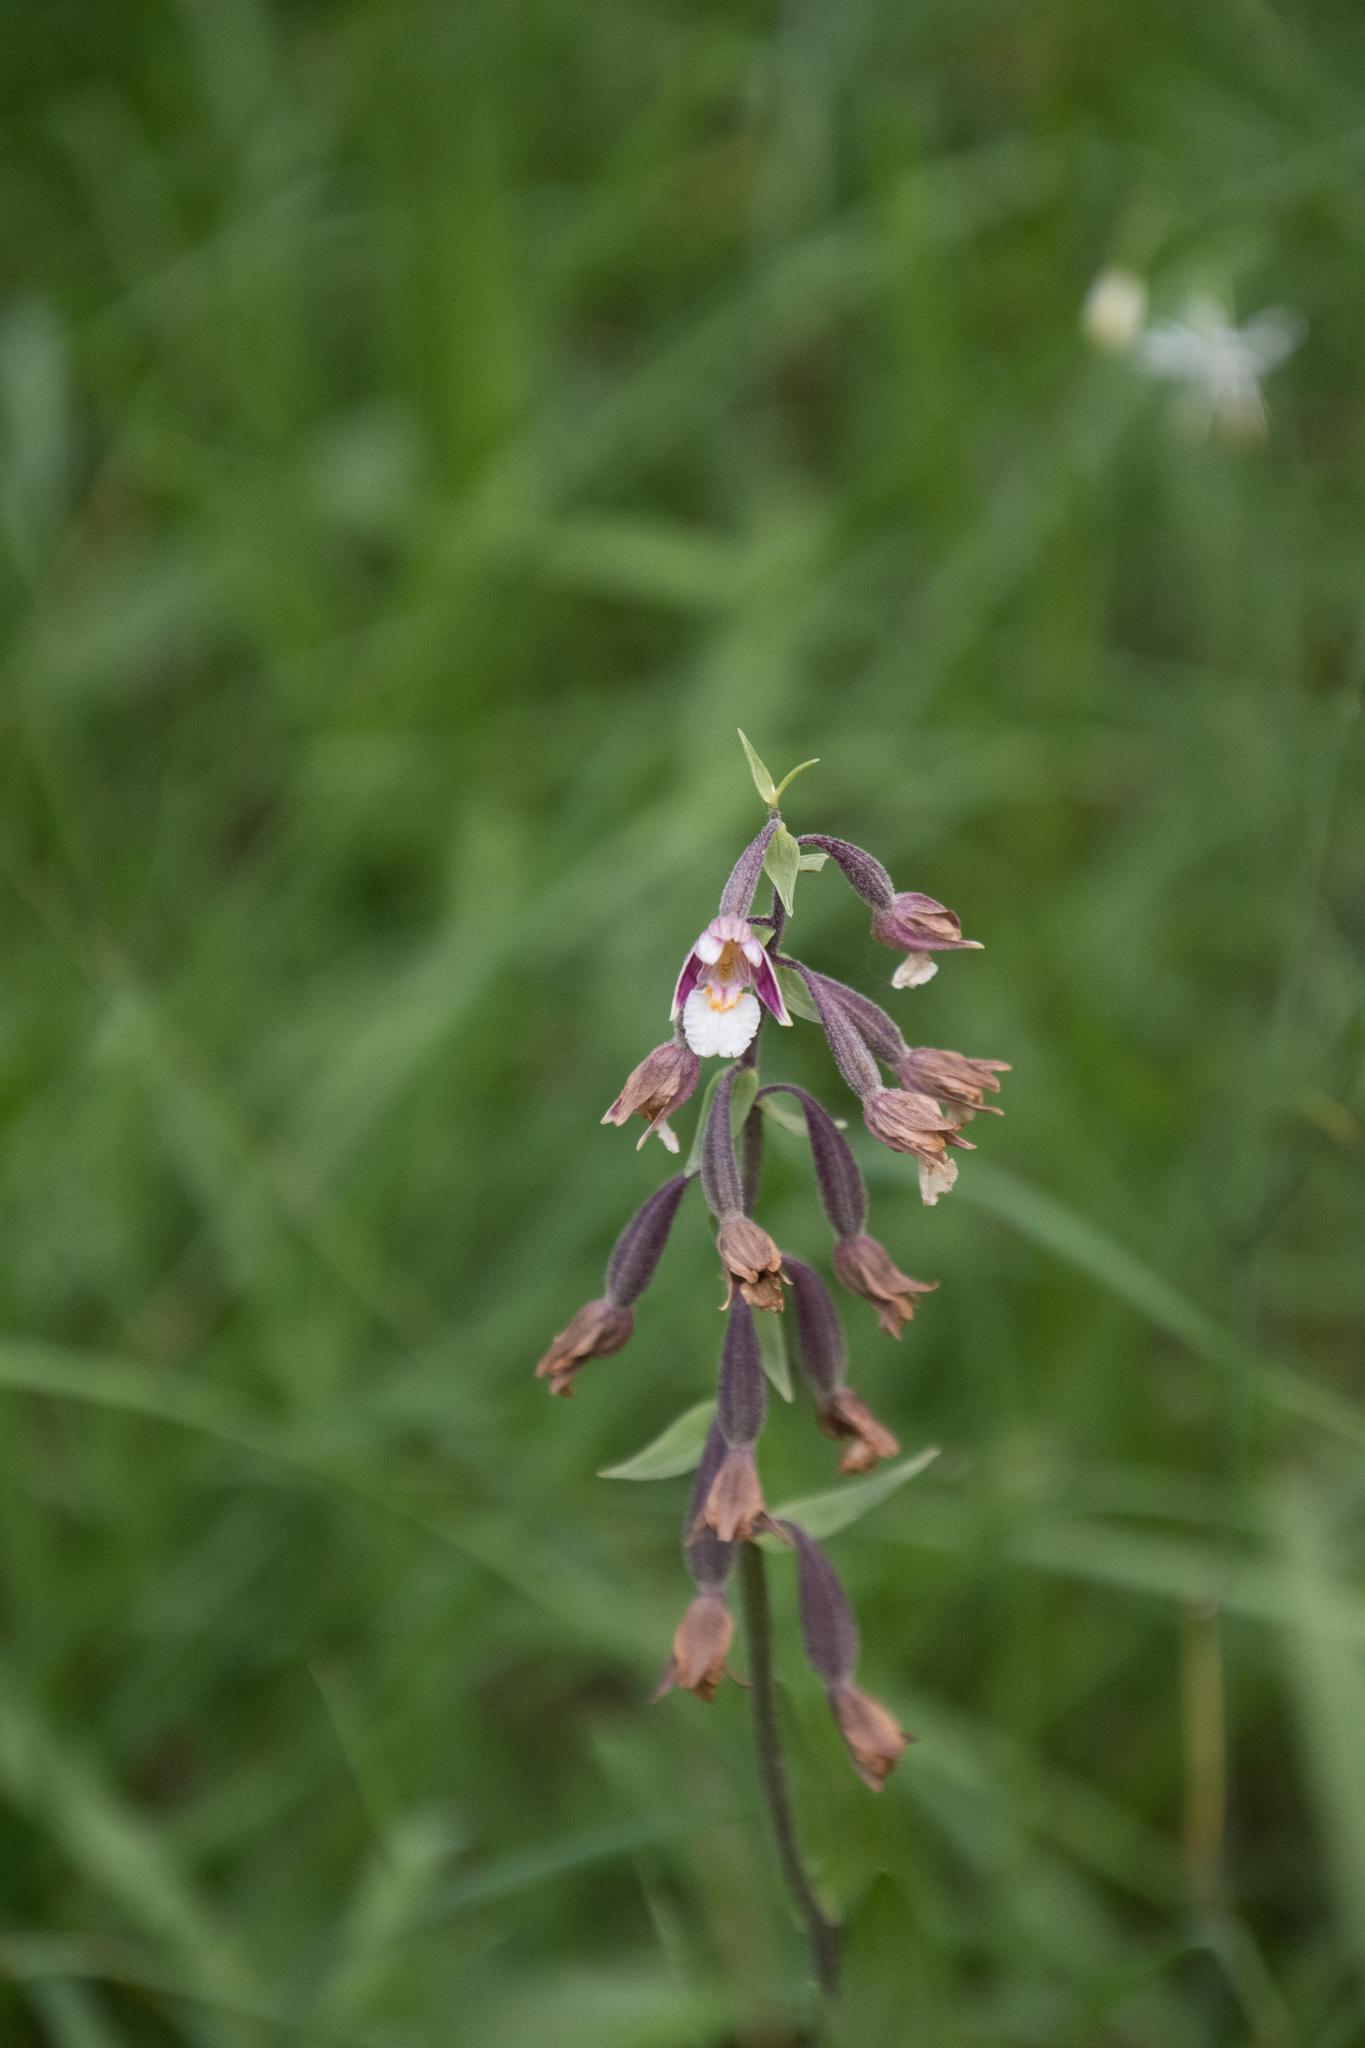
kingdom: Plantae
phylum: Tracheophyta
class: Liliopsida
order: Asparagales
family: Orchidaceae
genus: Epipactis
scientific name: Epipactis palustris
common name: Marsh helleborine
